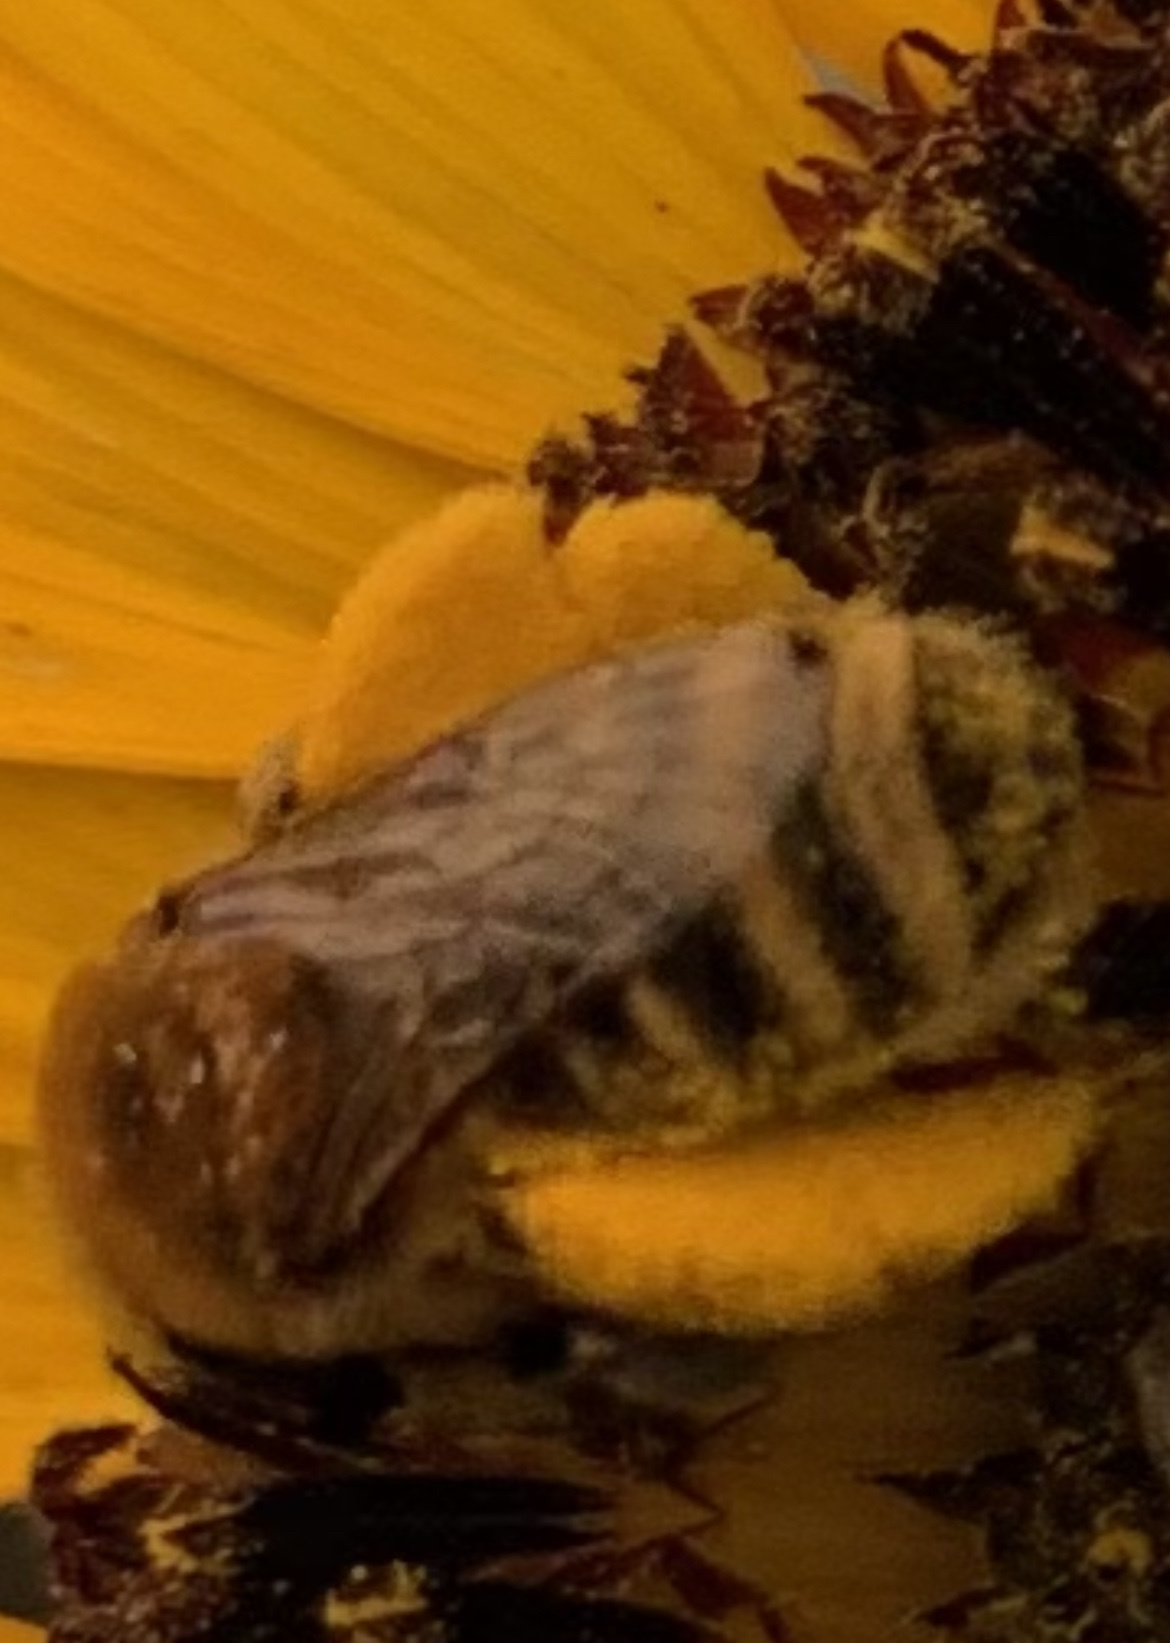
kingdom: Animalia
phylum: Arthropoda
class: Insecta
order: Hymenoptera
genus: Eumelissodes
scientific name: Eumelissodes
